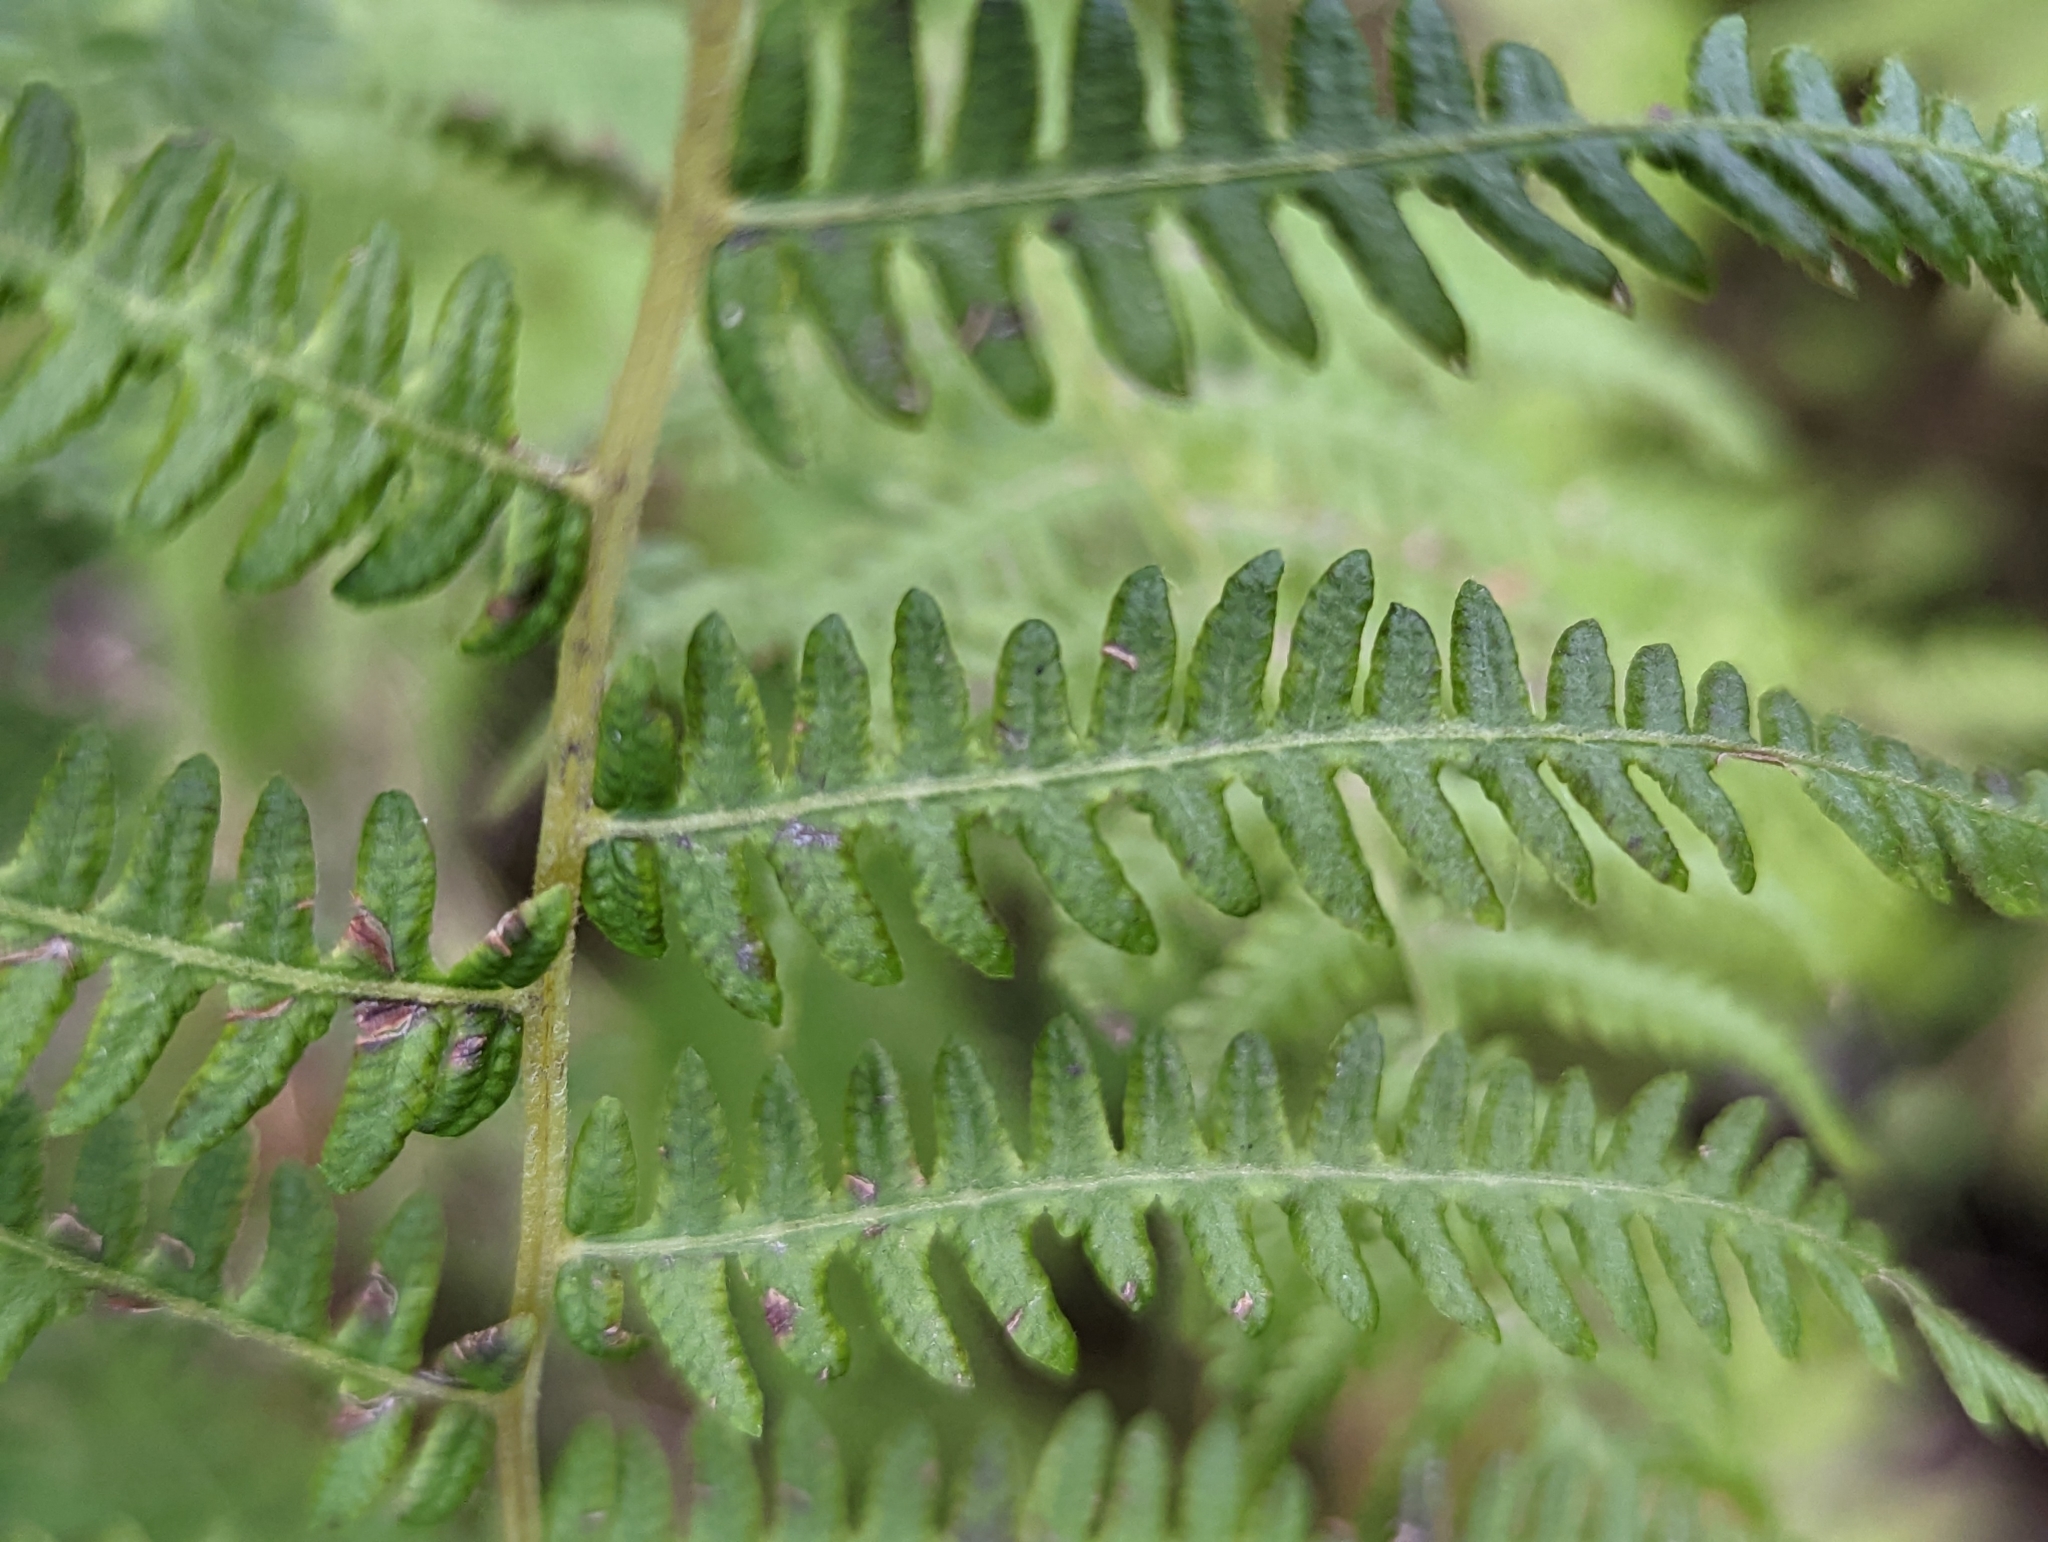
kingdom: Plantae
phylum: Tracheophyta
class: Polypodiopsida
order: Polypodiales
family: Thelypteridaceae
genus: Amauropelta
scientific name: Amauropelta noveboracensis
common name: New york fern
